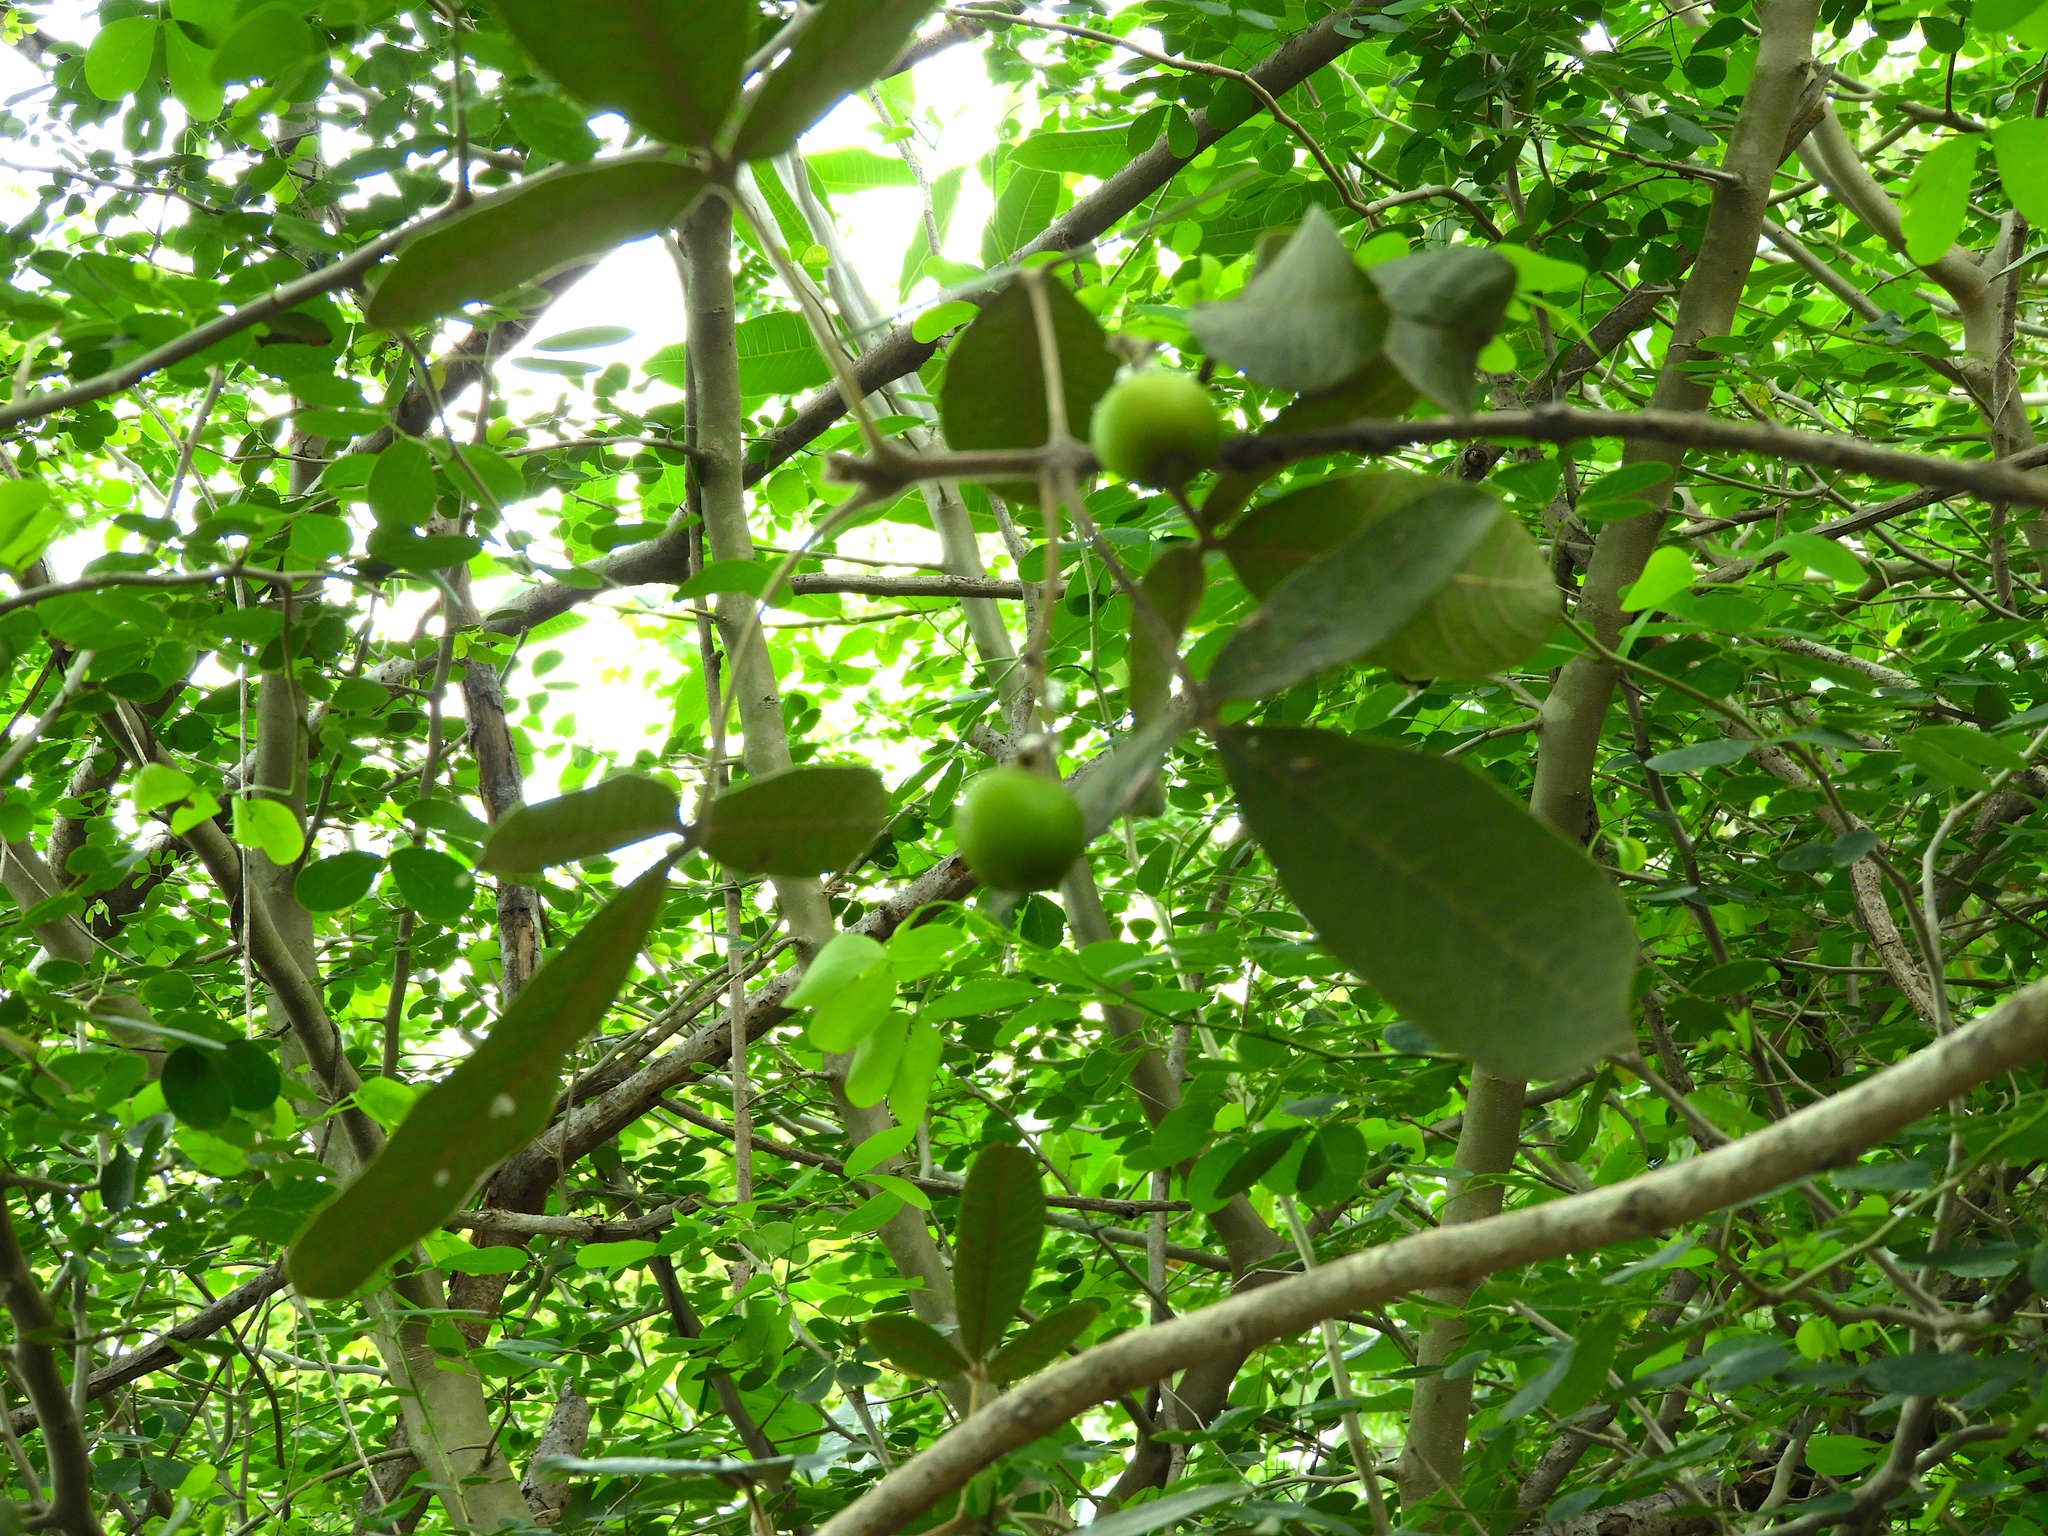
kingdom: Plantae
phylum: Tracheophyta
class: Magnoliopsida
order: Lamiales
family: Lamiaceae
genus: Vitex
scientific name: Vitex mollis
